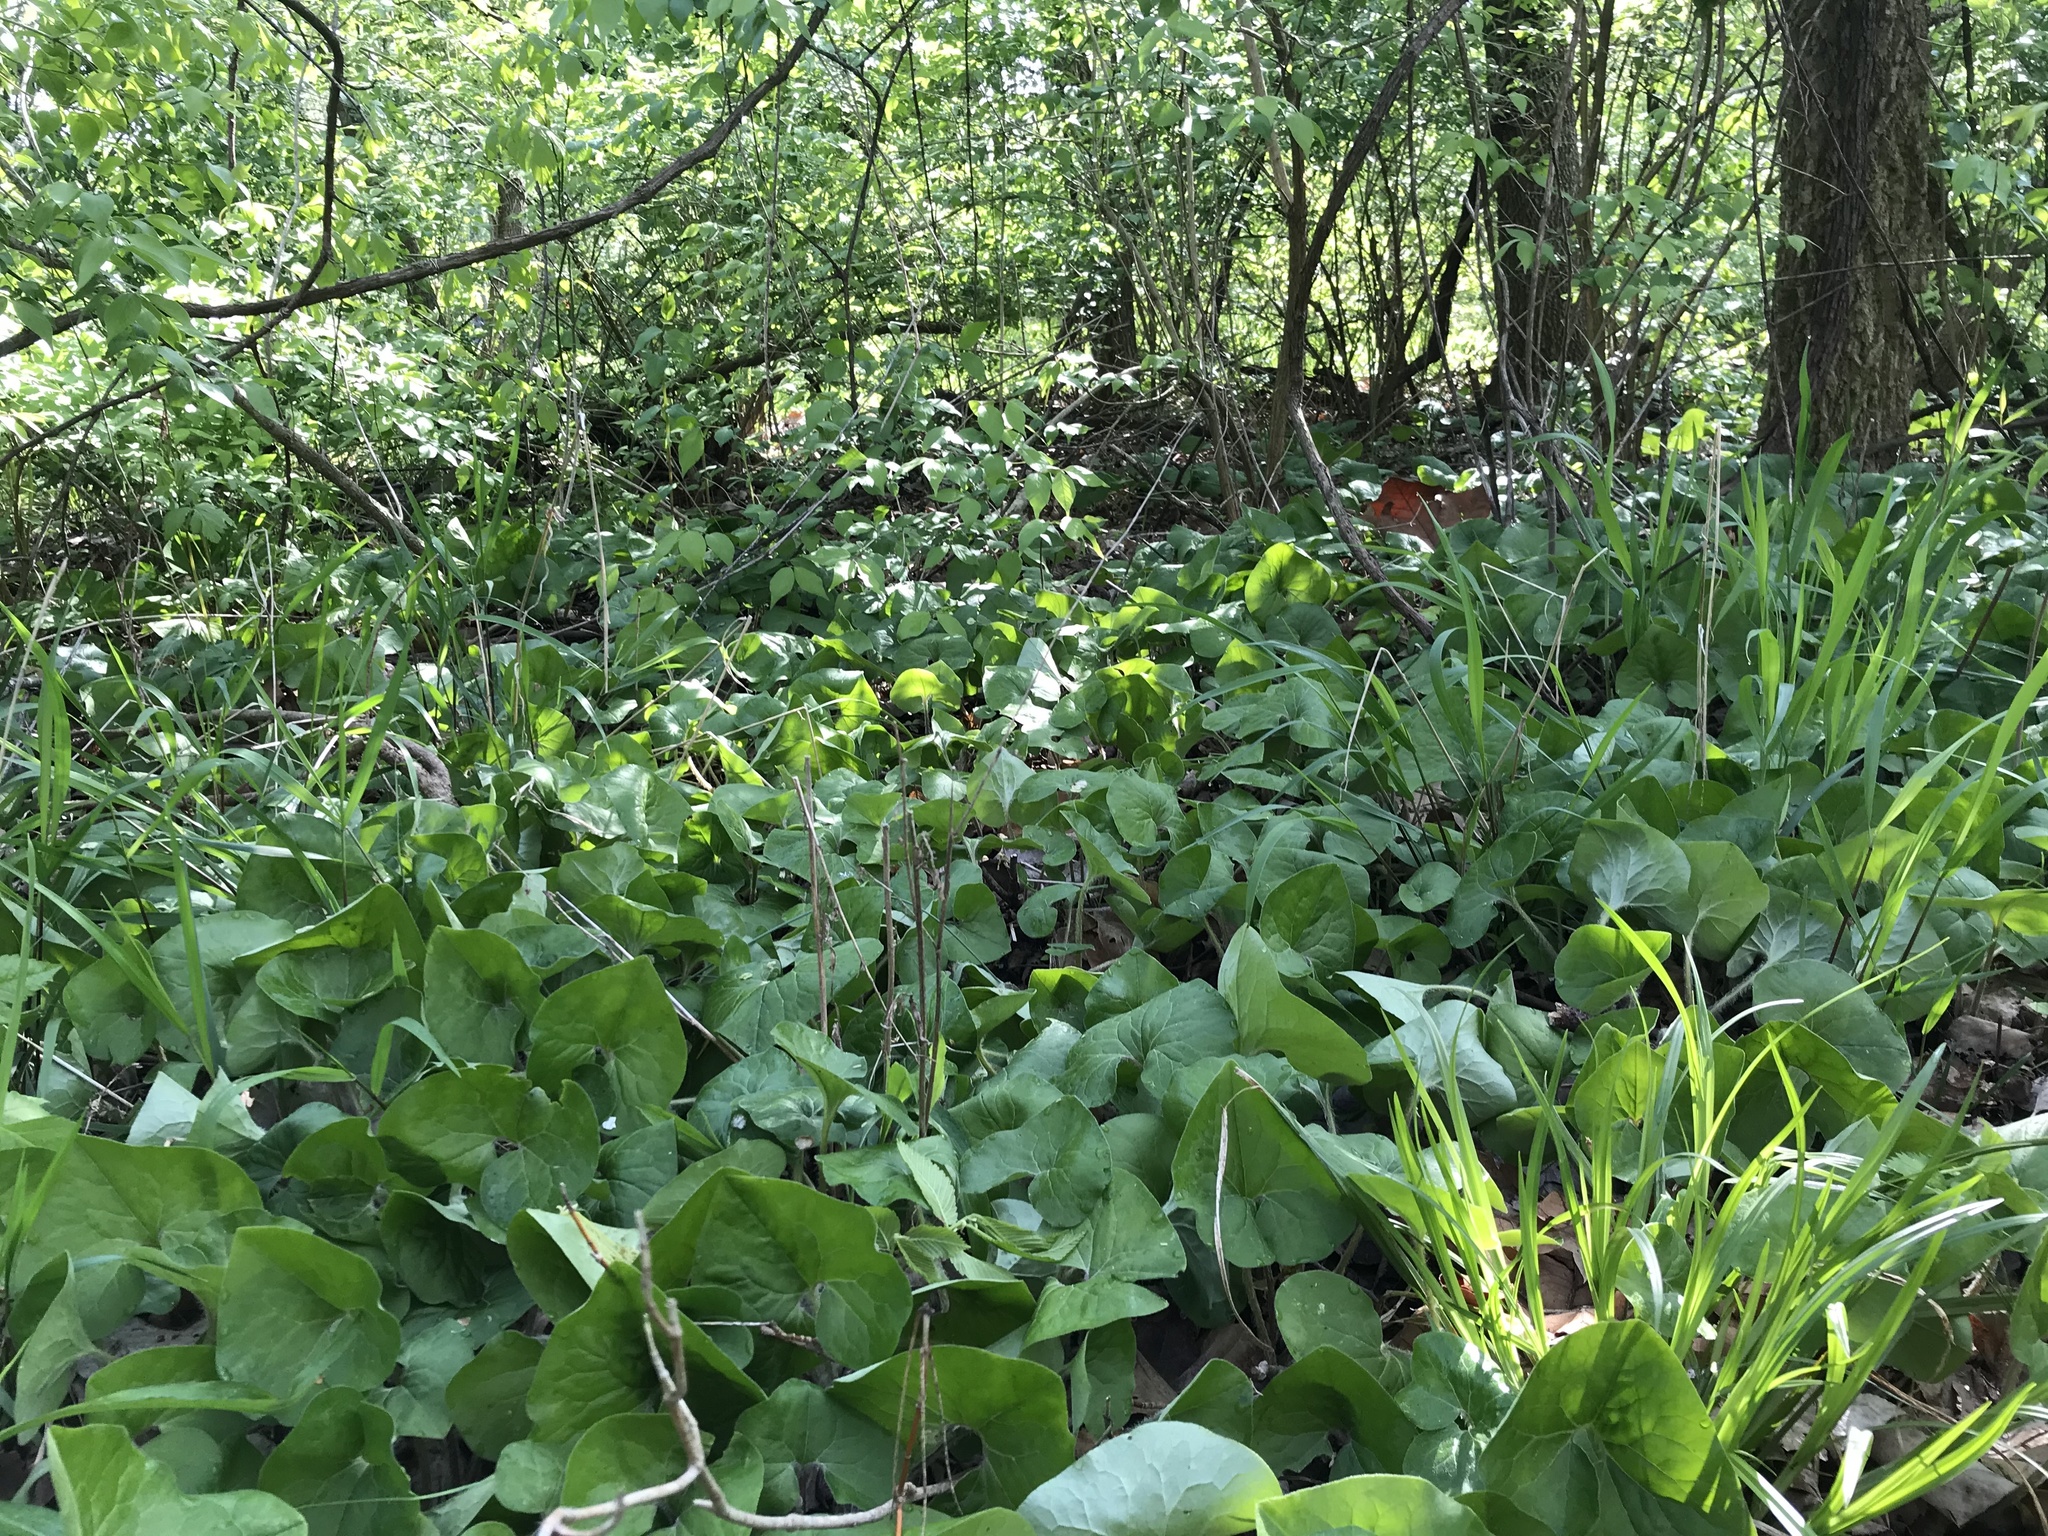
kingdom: Plantae
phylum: Tracheophyta
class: Magnoliopsida
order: Piperales
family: Aristolochiaceae
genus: Asarum
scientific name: Asarum canadense
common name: Wild ginger
